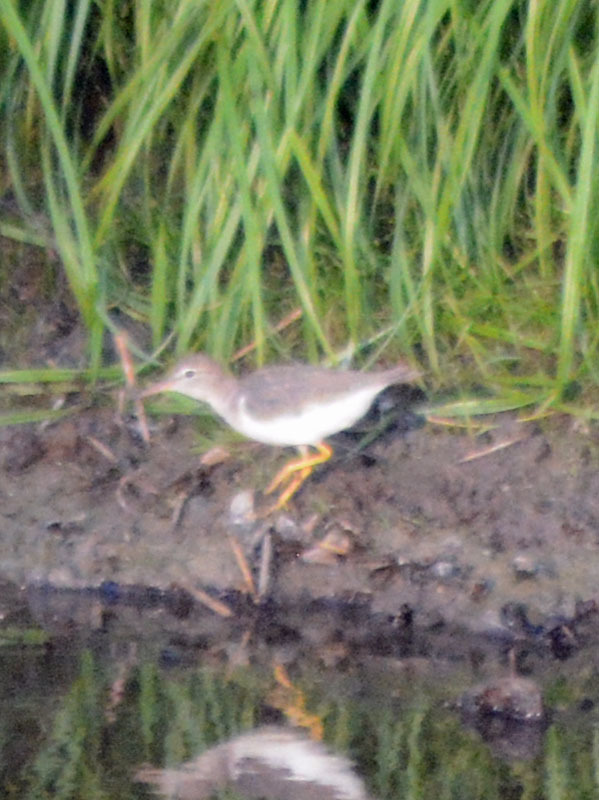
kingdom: Animalia
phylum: Chordata
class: Aves
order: Charadriiformes
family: Scolopacidae
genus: Actitis
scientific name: Actitis macularius
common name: Spotted sandpiper
